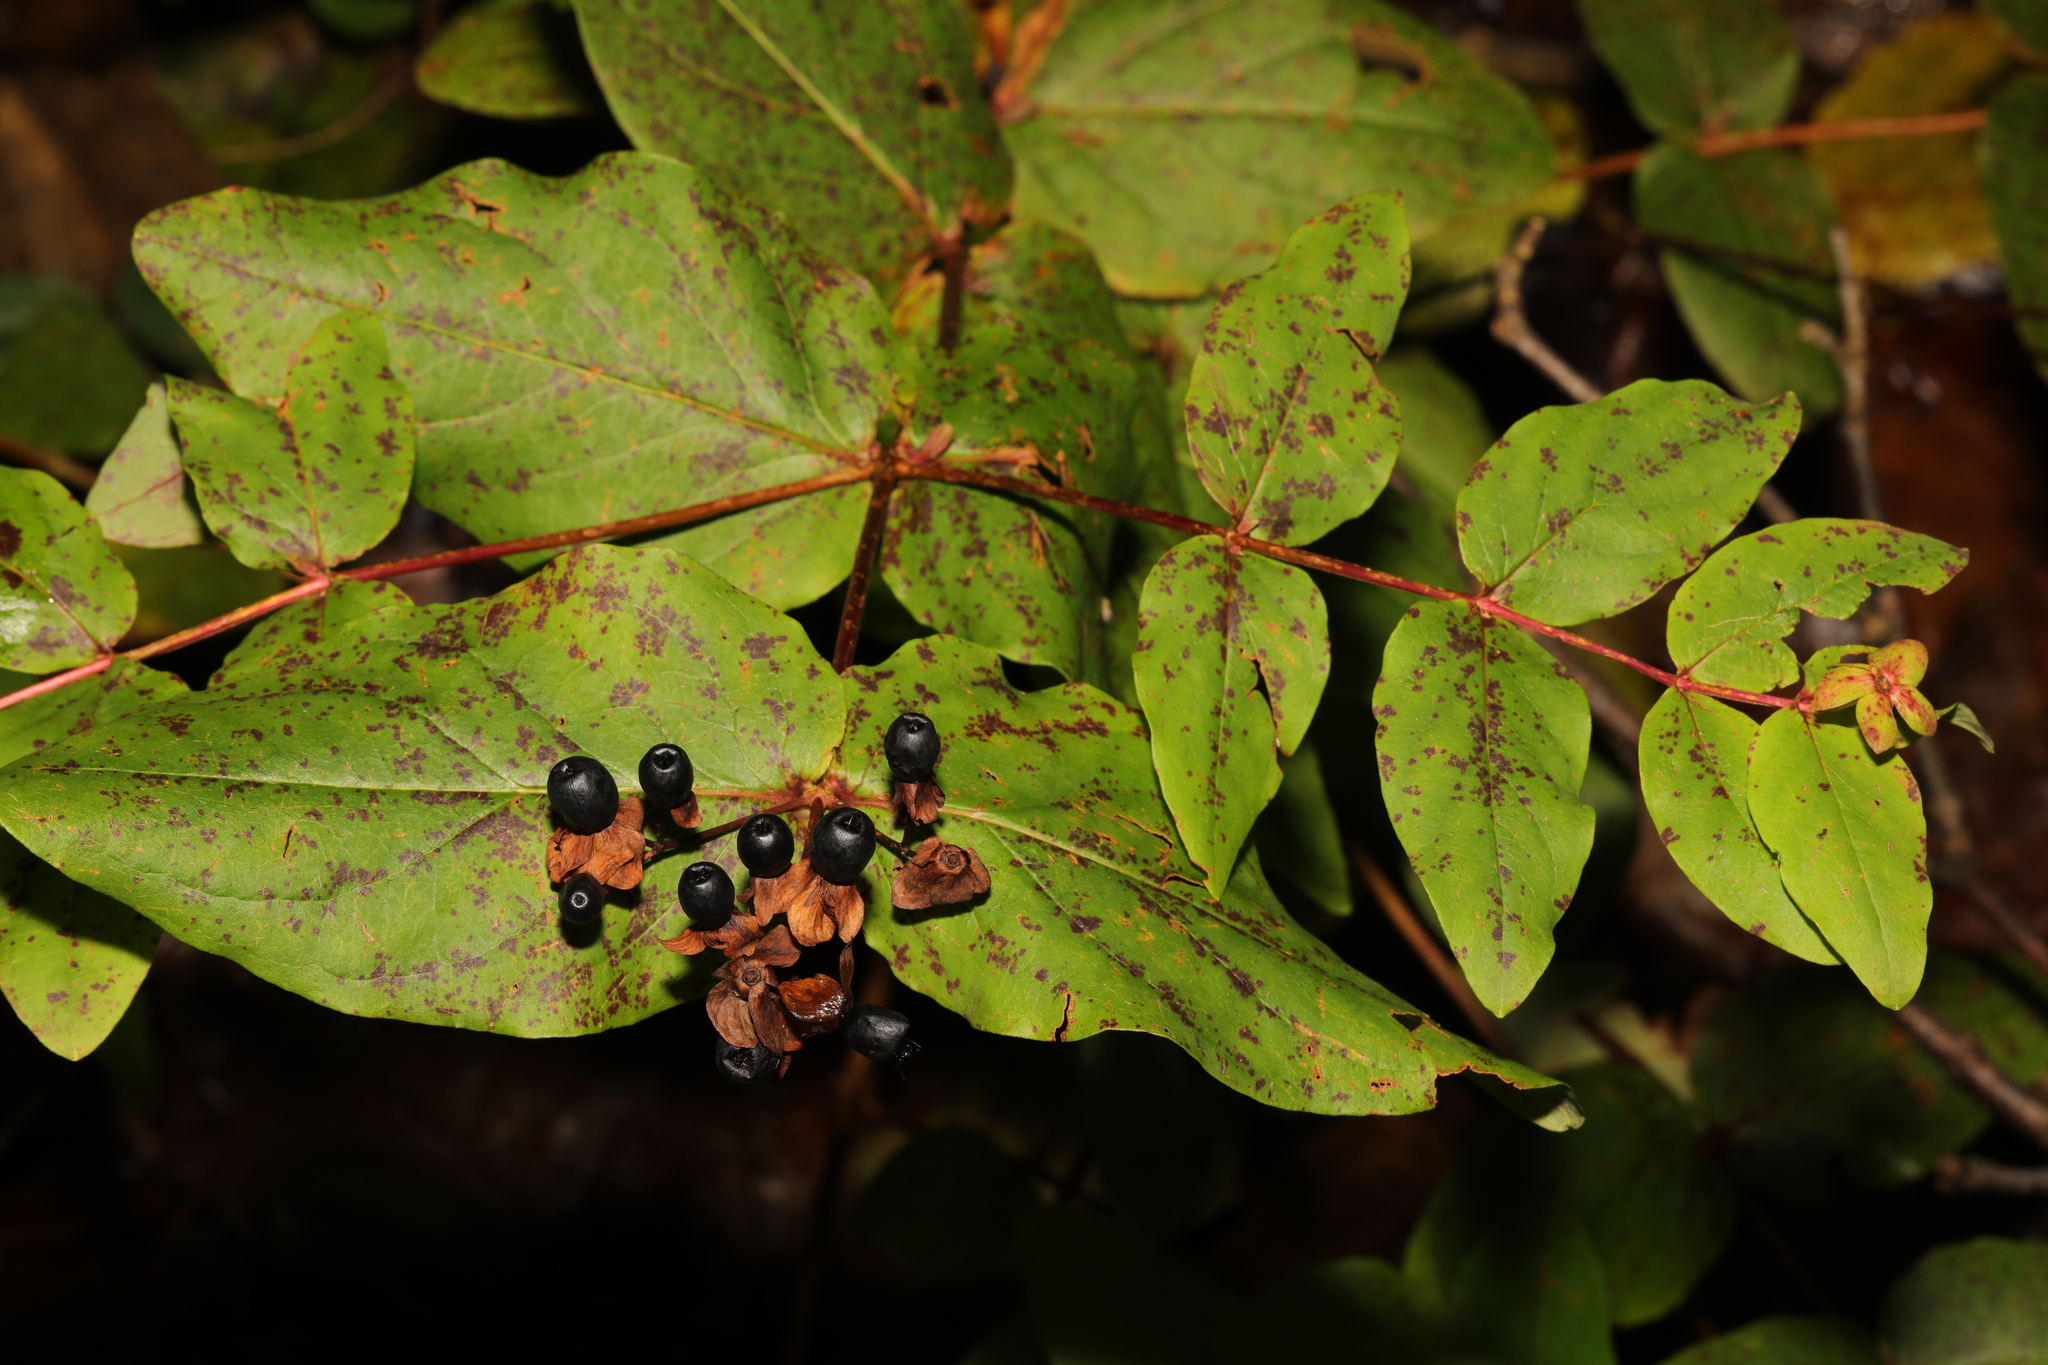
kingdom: Plantae
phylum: Tracheophyta
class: Magnoliopsida
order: Malpighiales
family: Hypericaceae
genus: Hypericum
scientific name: Hypericum androsaemum
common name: Sweet-amber
